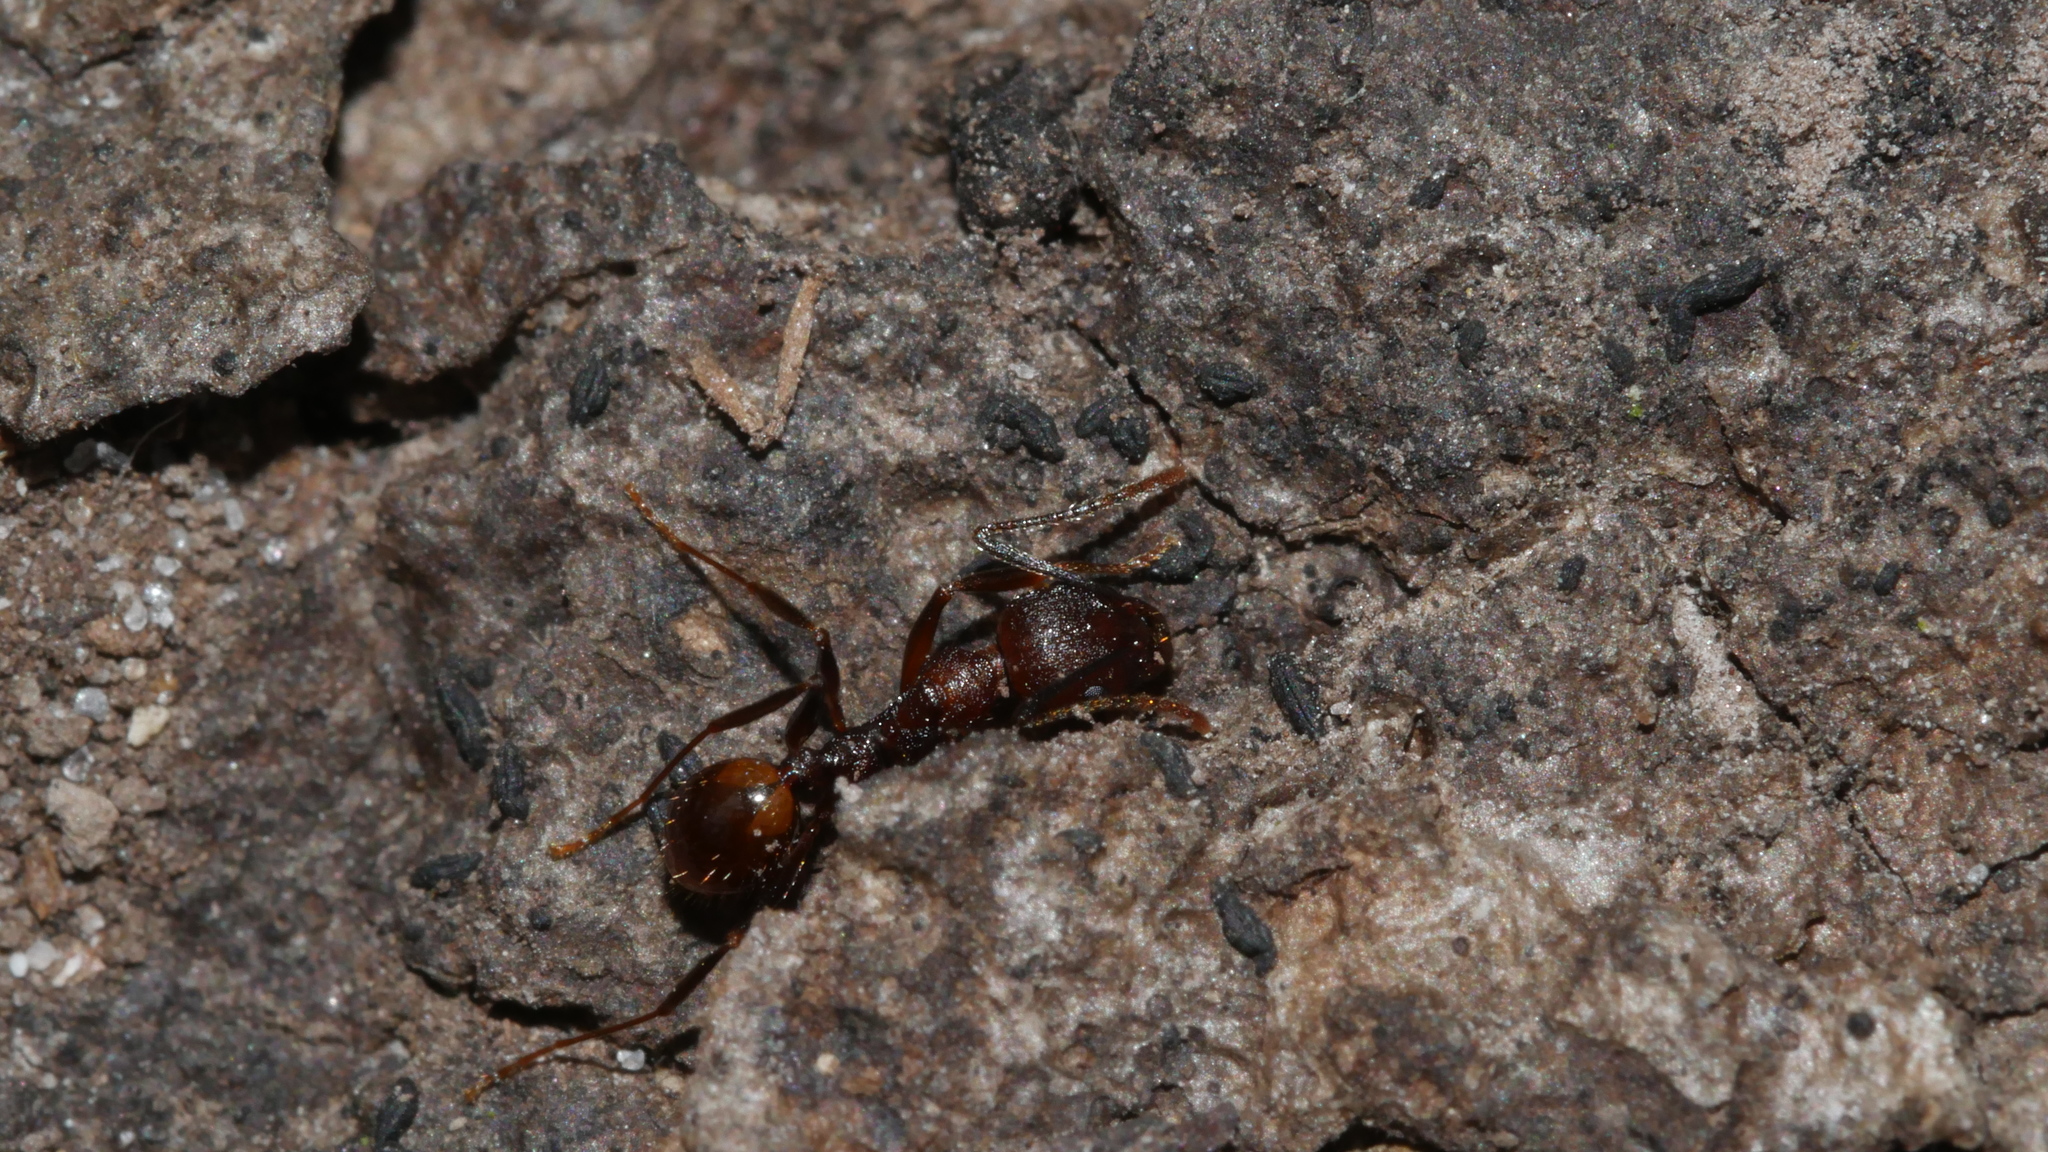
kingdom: Animalia
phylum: Arthropoda
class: Insecta
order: Hymenoptera
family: Formicidae
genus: Aphaenogaster
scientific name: Aphaenogaster fulva
